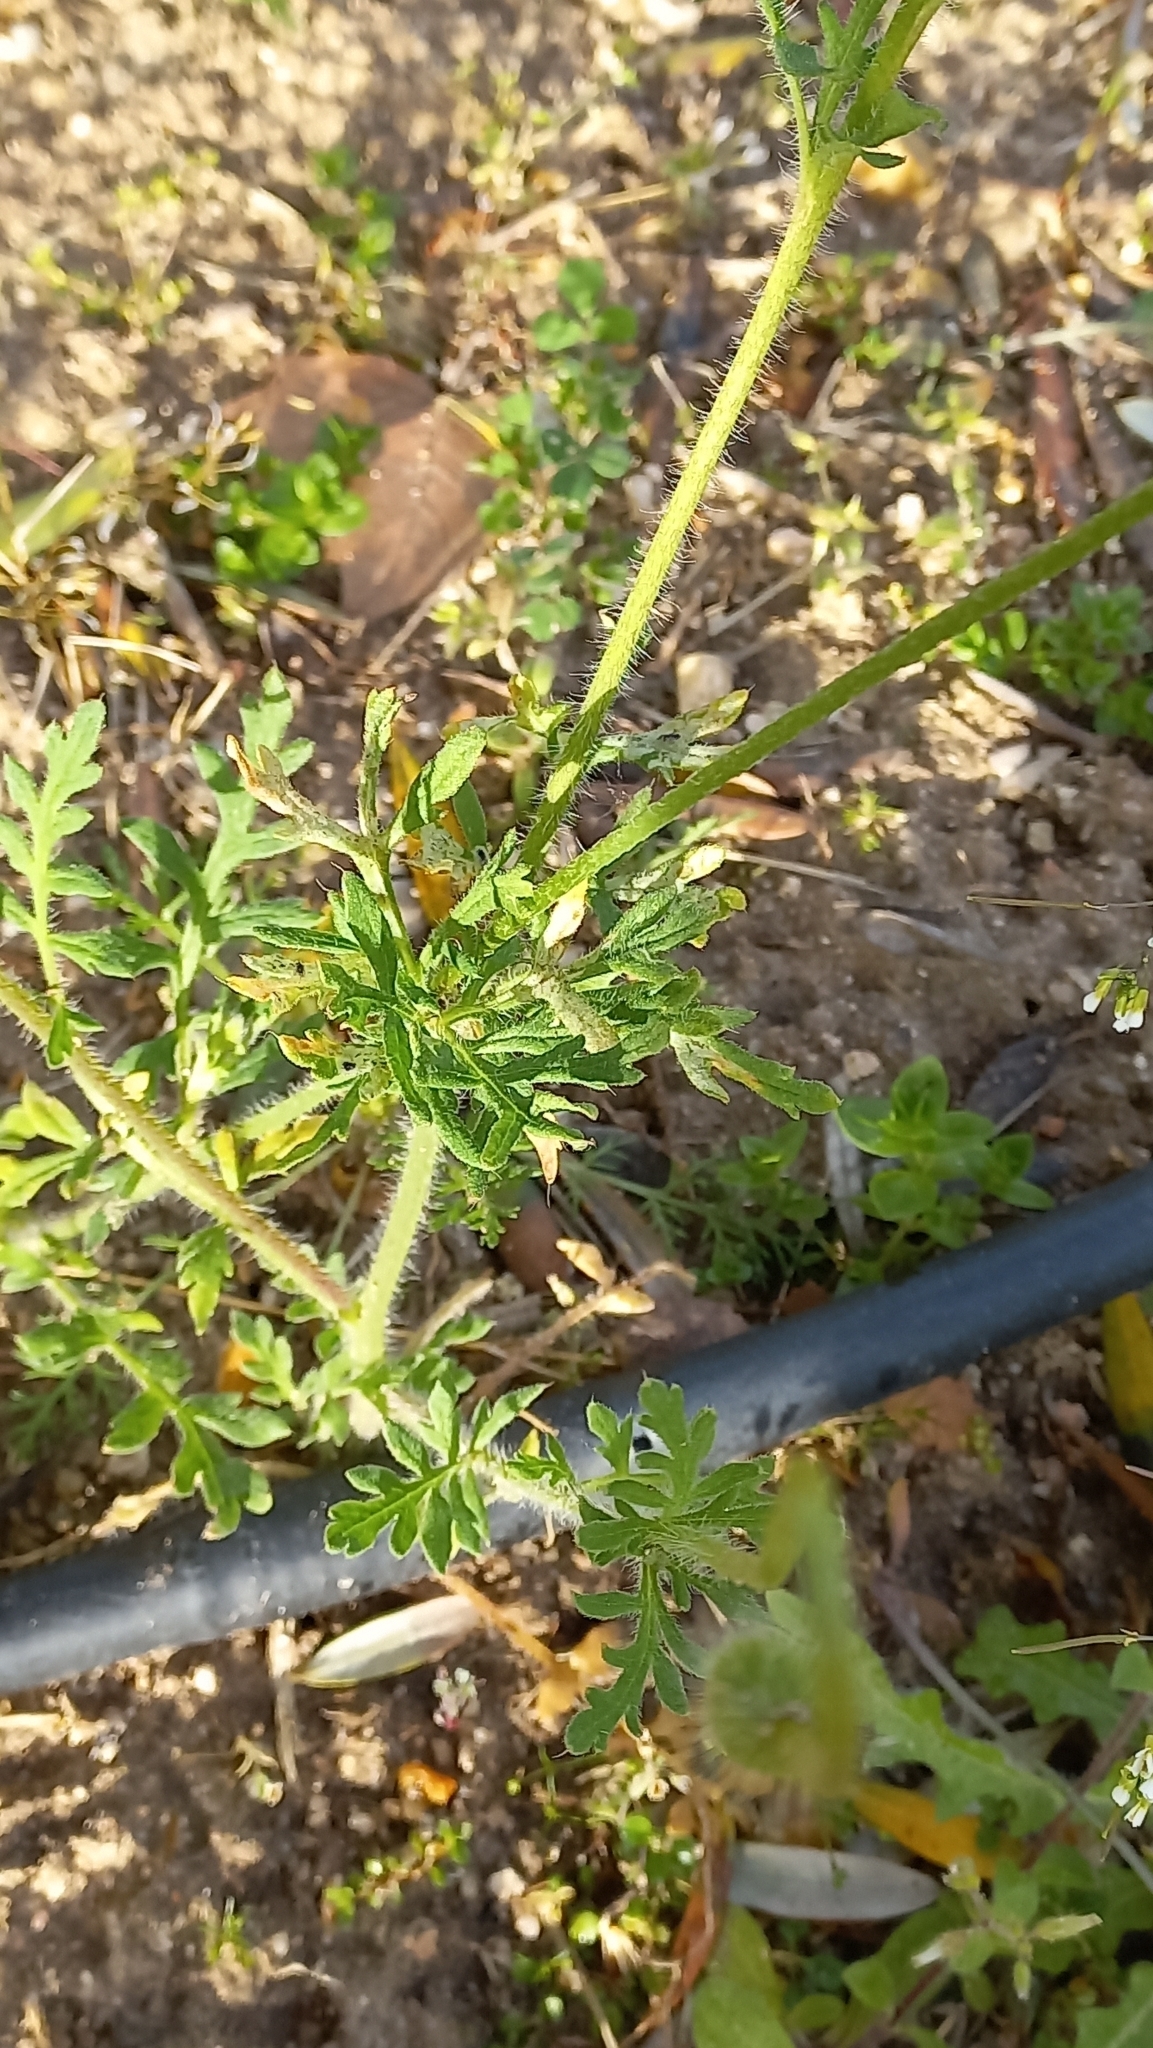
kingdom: Plantae
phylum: Tracheophyta
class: Magnoliopsida
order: Ranunculales
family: Papaveraceae
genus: Papaver
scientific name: Papaver dubium
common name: Long-headed poppy
